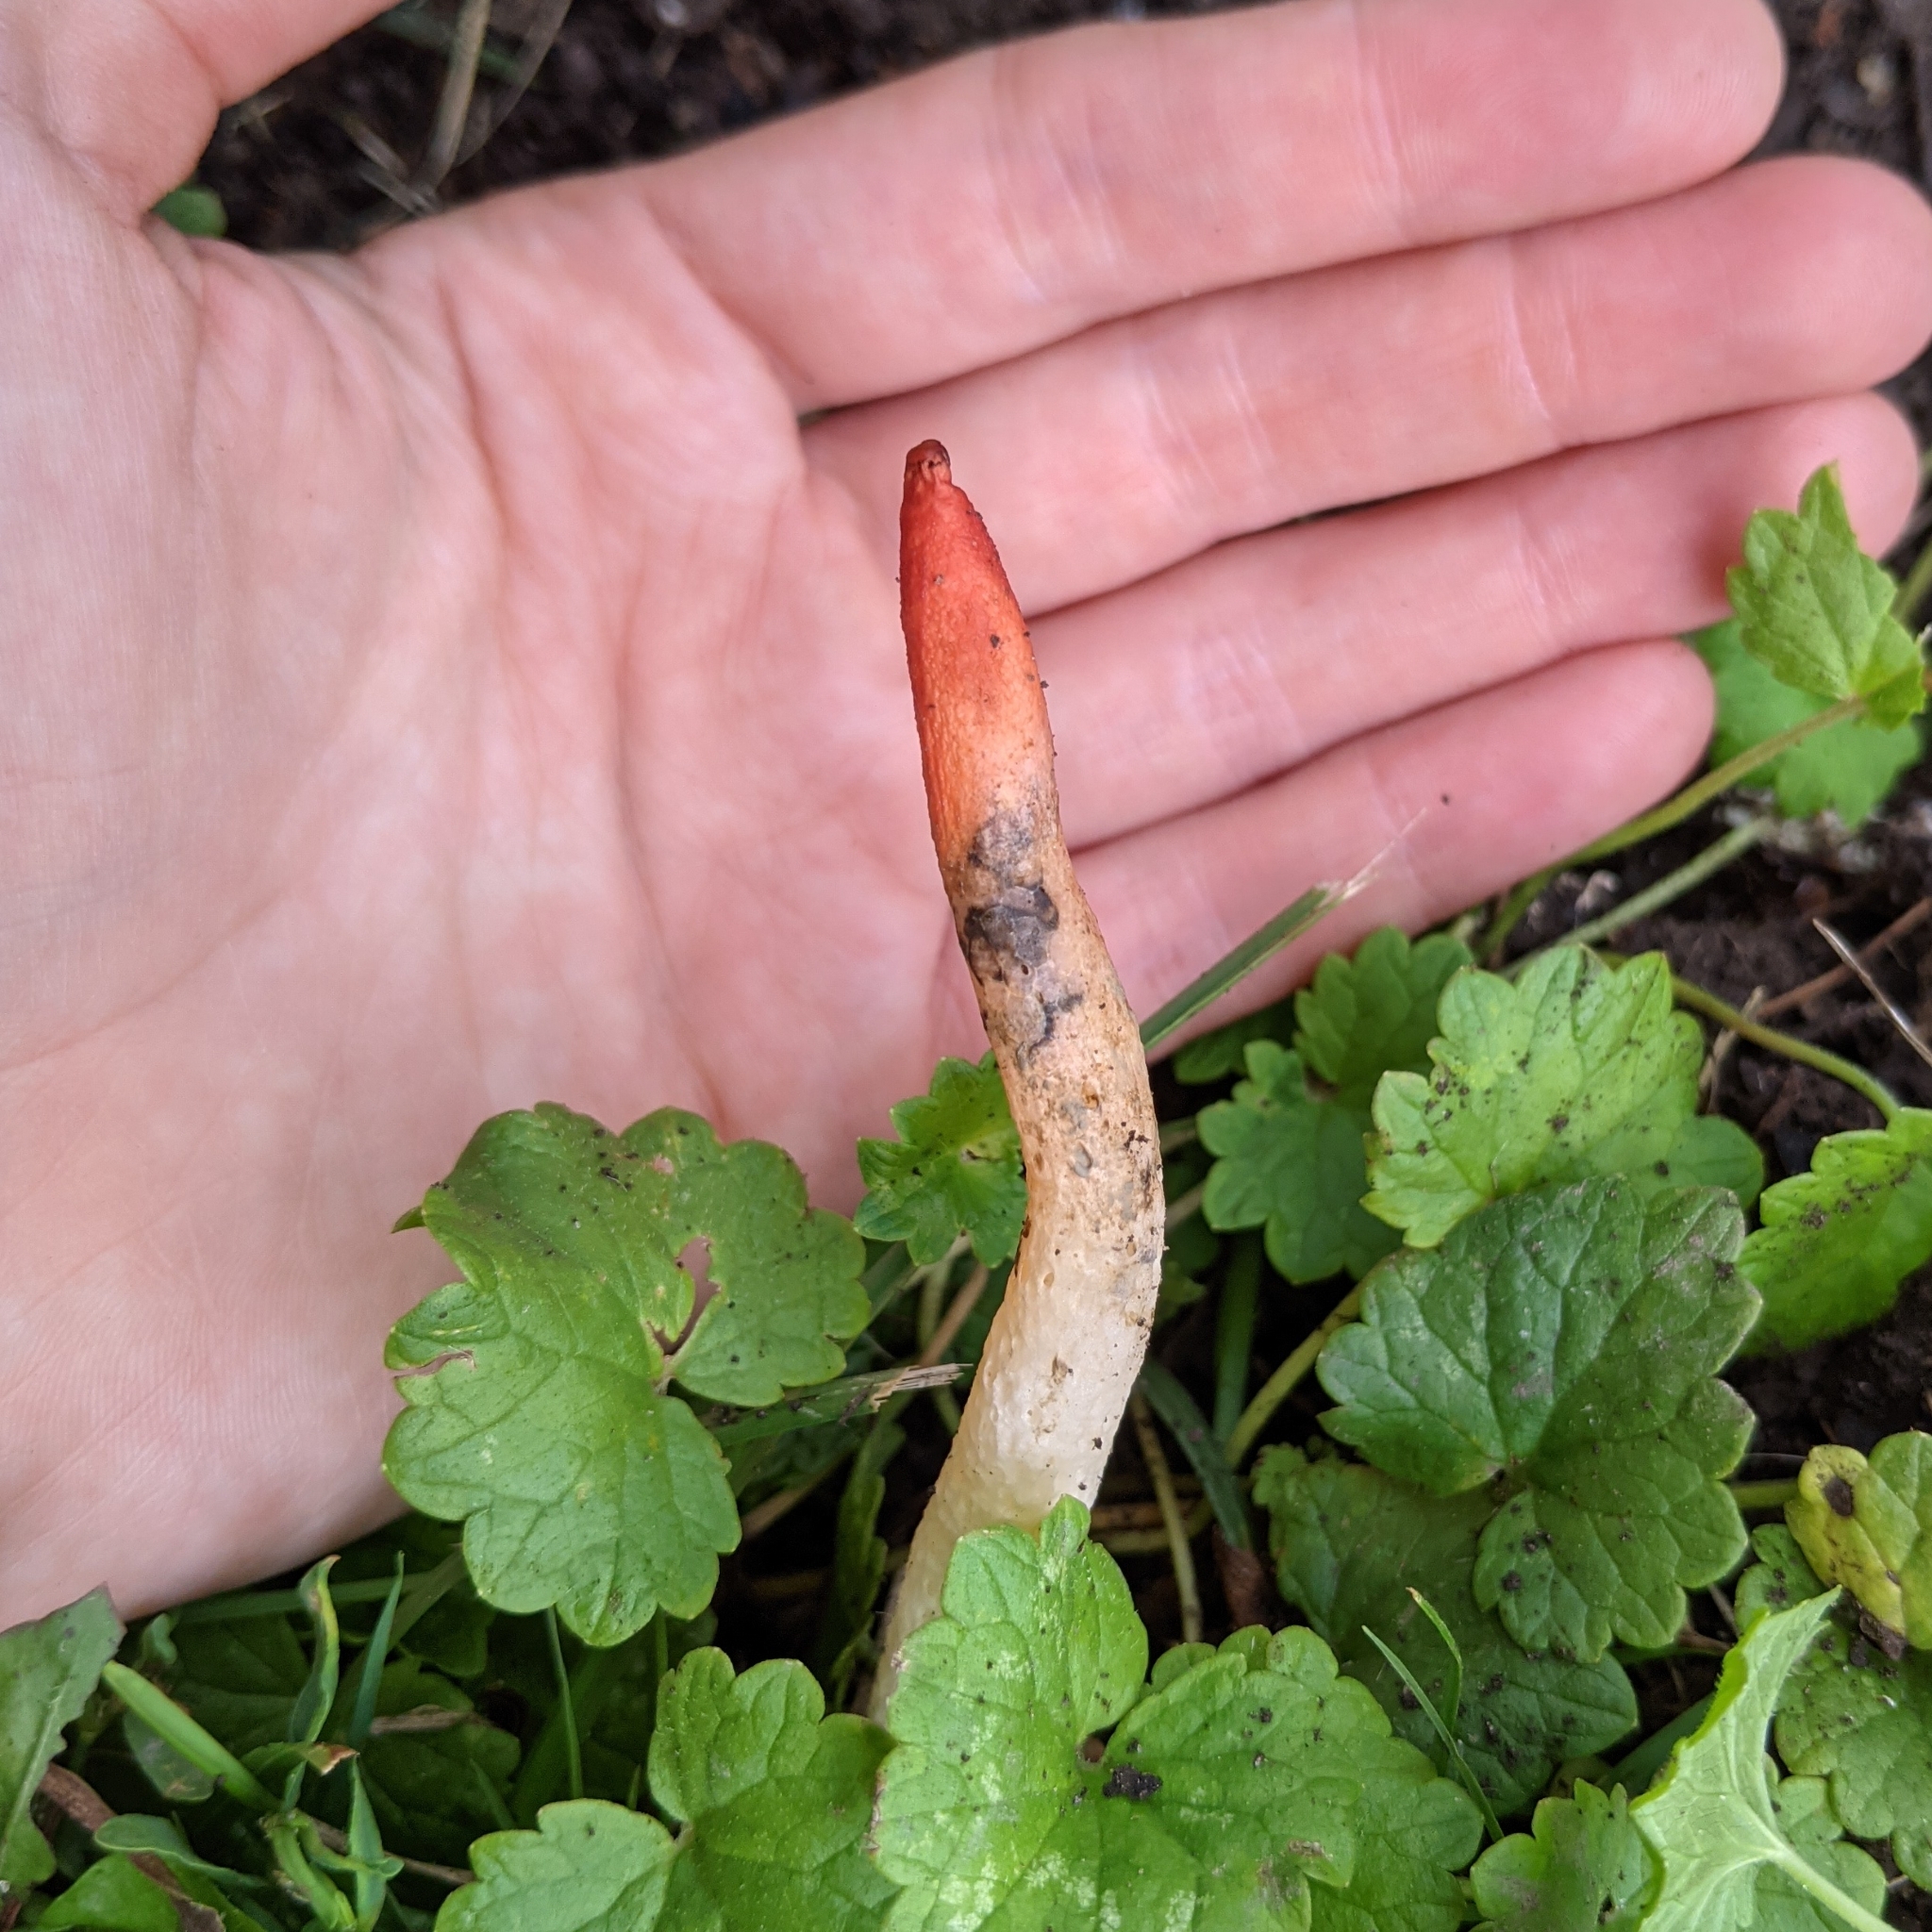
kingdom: Fungi
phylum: Basidiomycota
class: Agaricomycetes
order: Phallales
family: Phallaceae
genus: Phallus
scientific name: Phallus rugulosus
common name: Wrinkly stinkhorn
